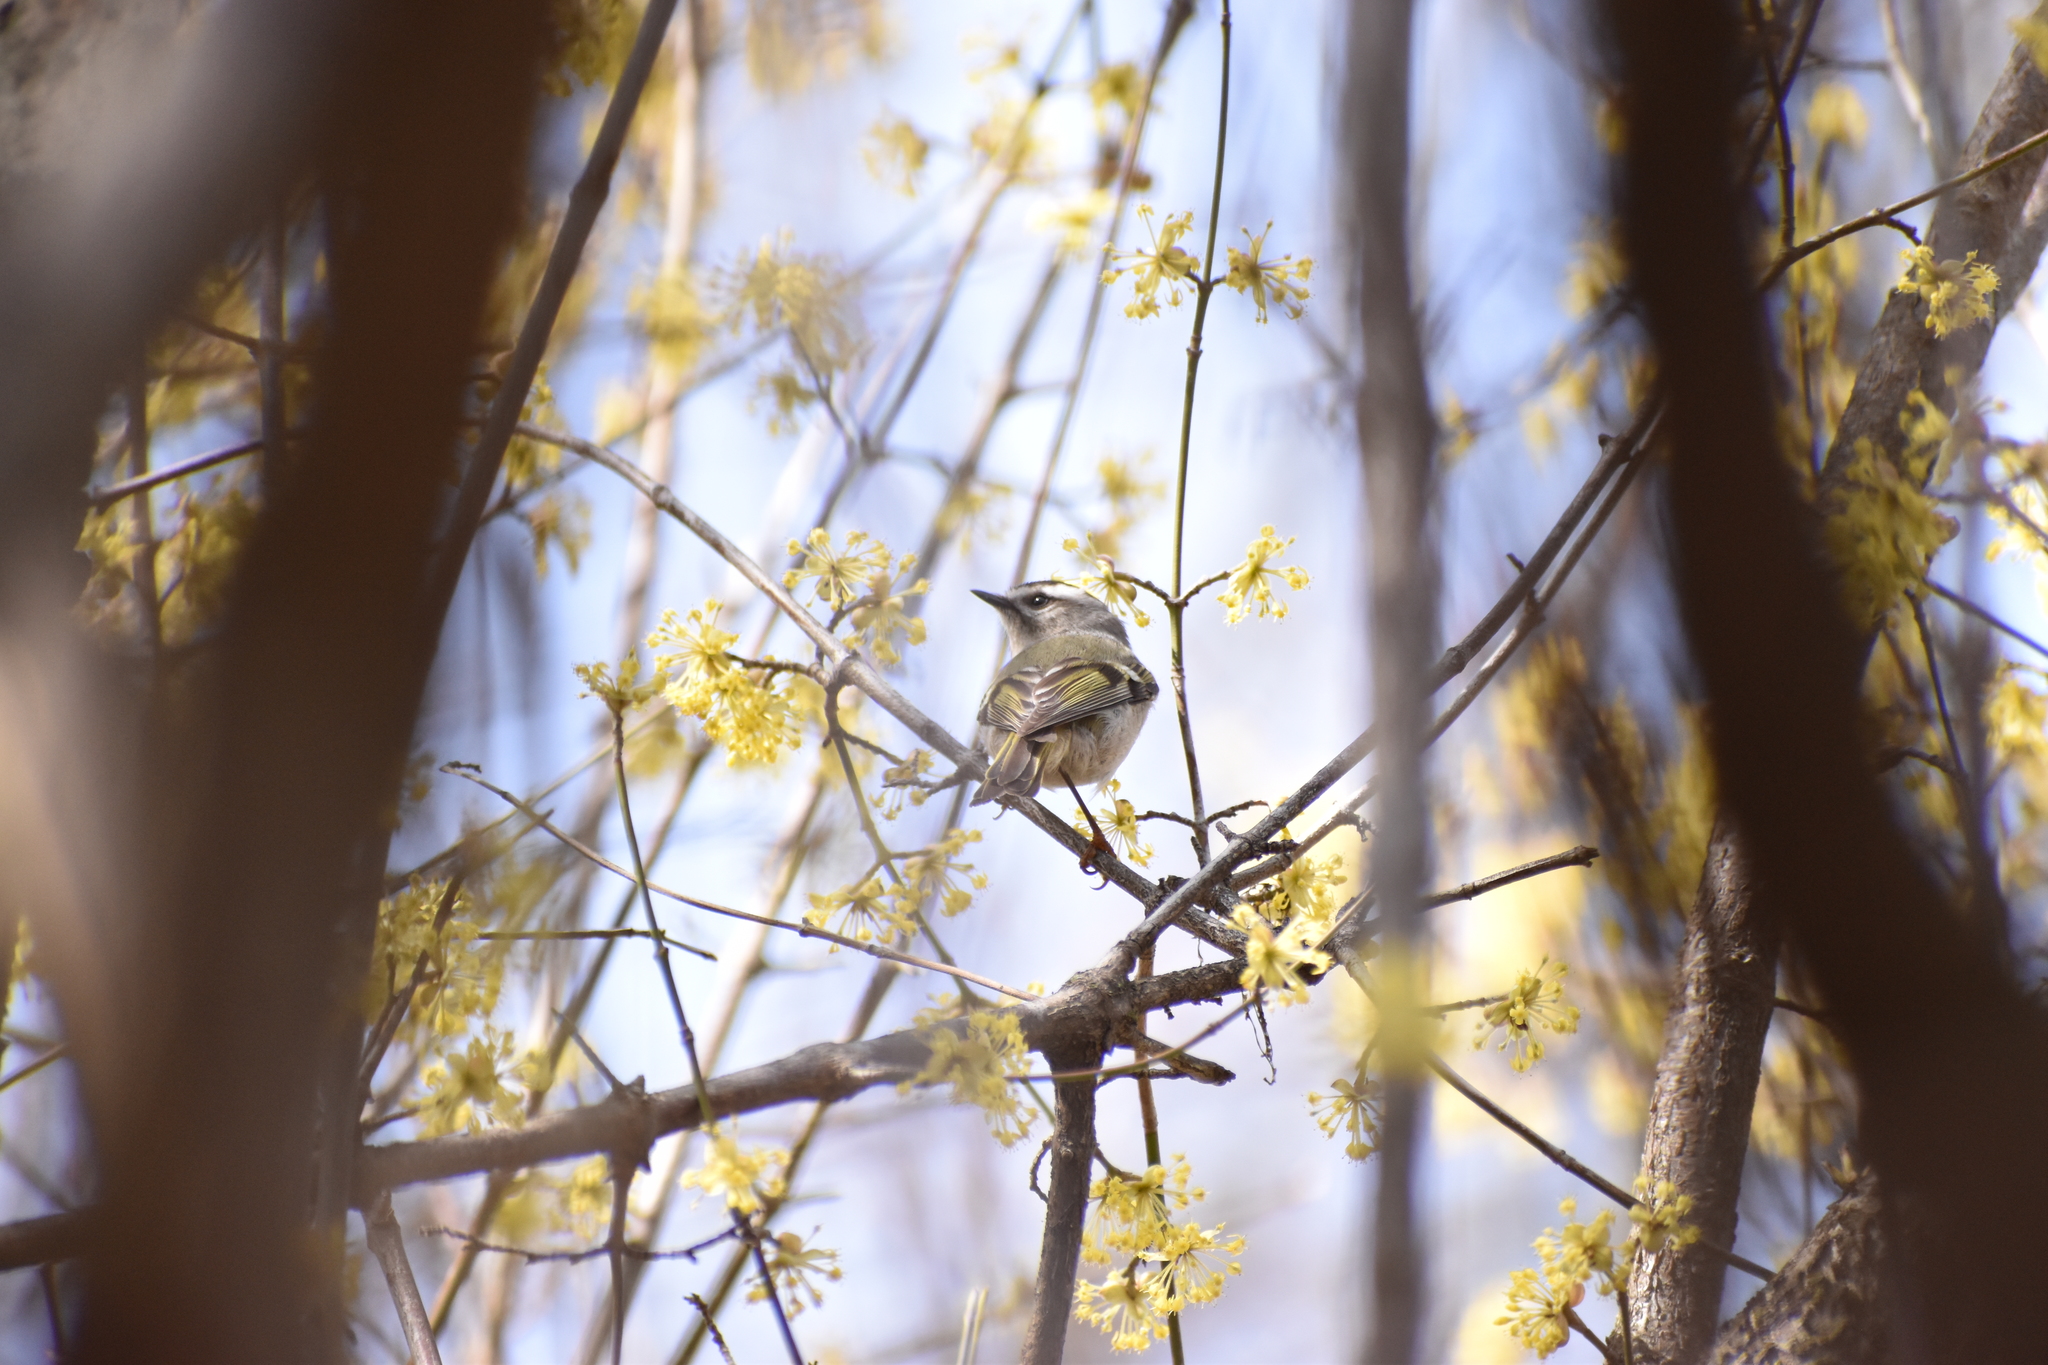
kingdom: Animalia
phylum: Chordata
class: Aves
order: Passeriformes
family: Regulidae
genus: Regulus
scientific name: Regulus satrapa
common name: Golden-crowned kinglet
